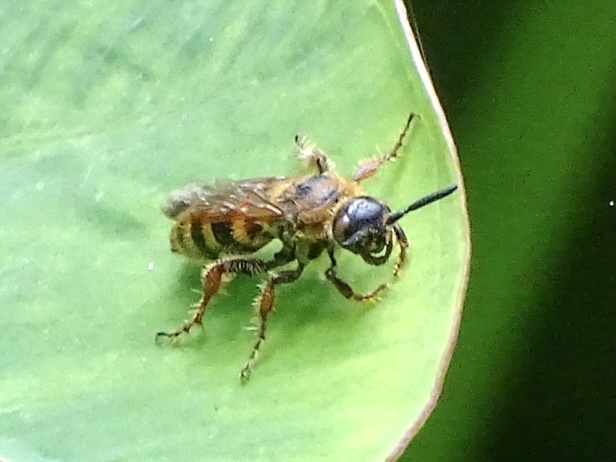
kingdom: Animalia
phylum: Arthropoda
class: Insecta
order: Hymenoptera
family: Scoliidae
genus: Campsomeris
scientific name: Campsomeris phalerata
